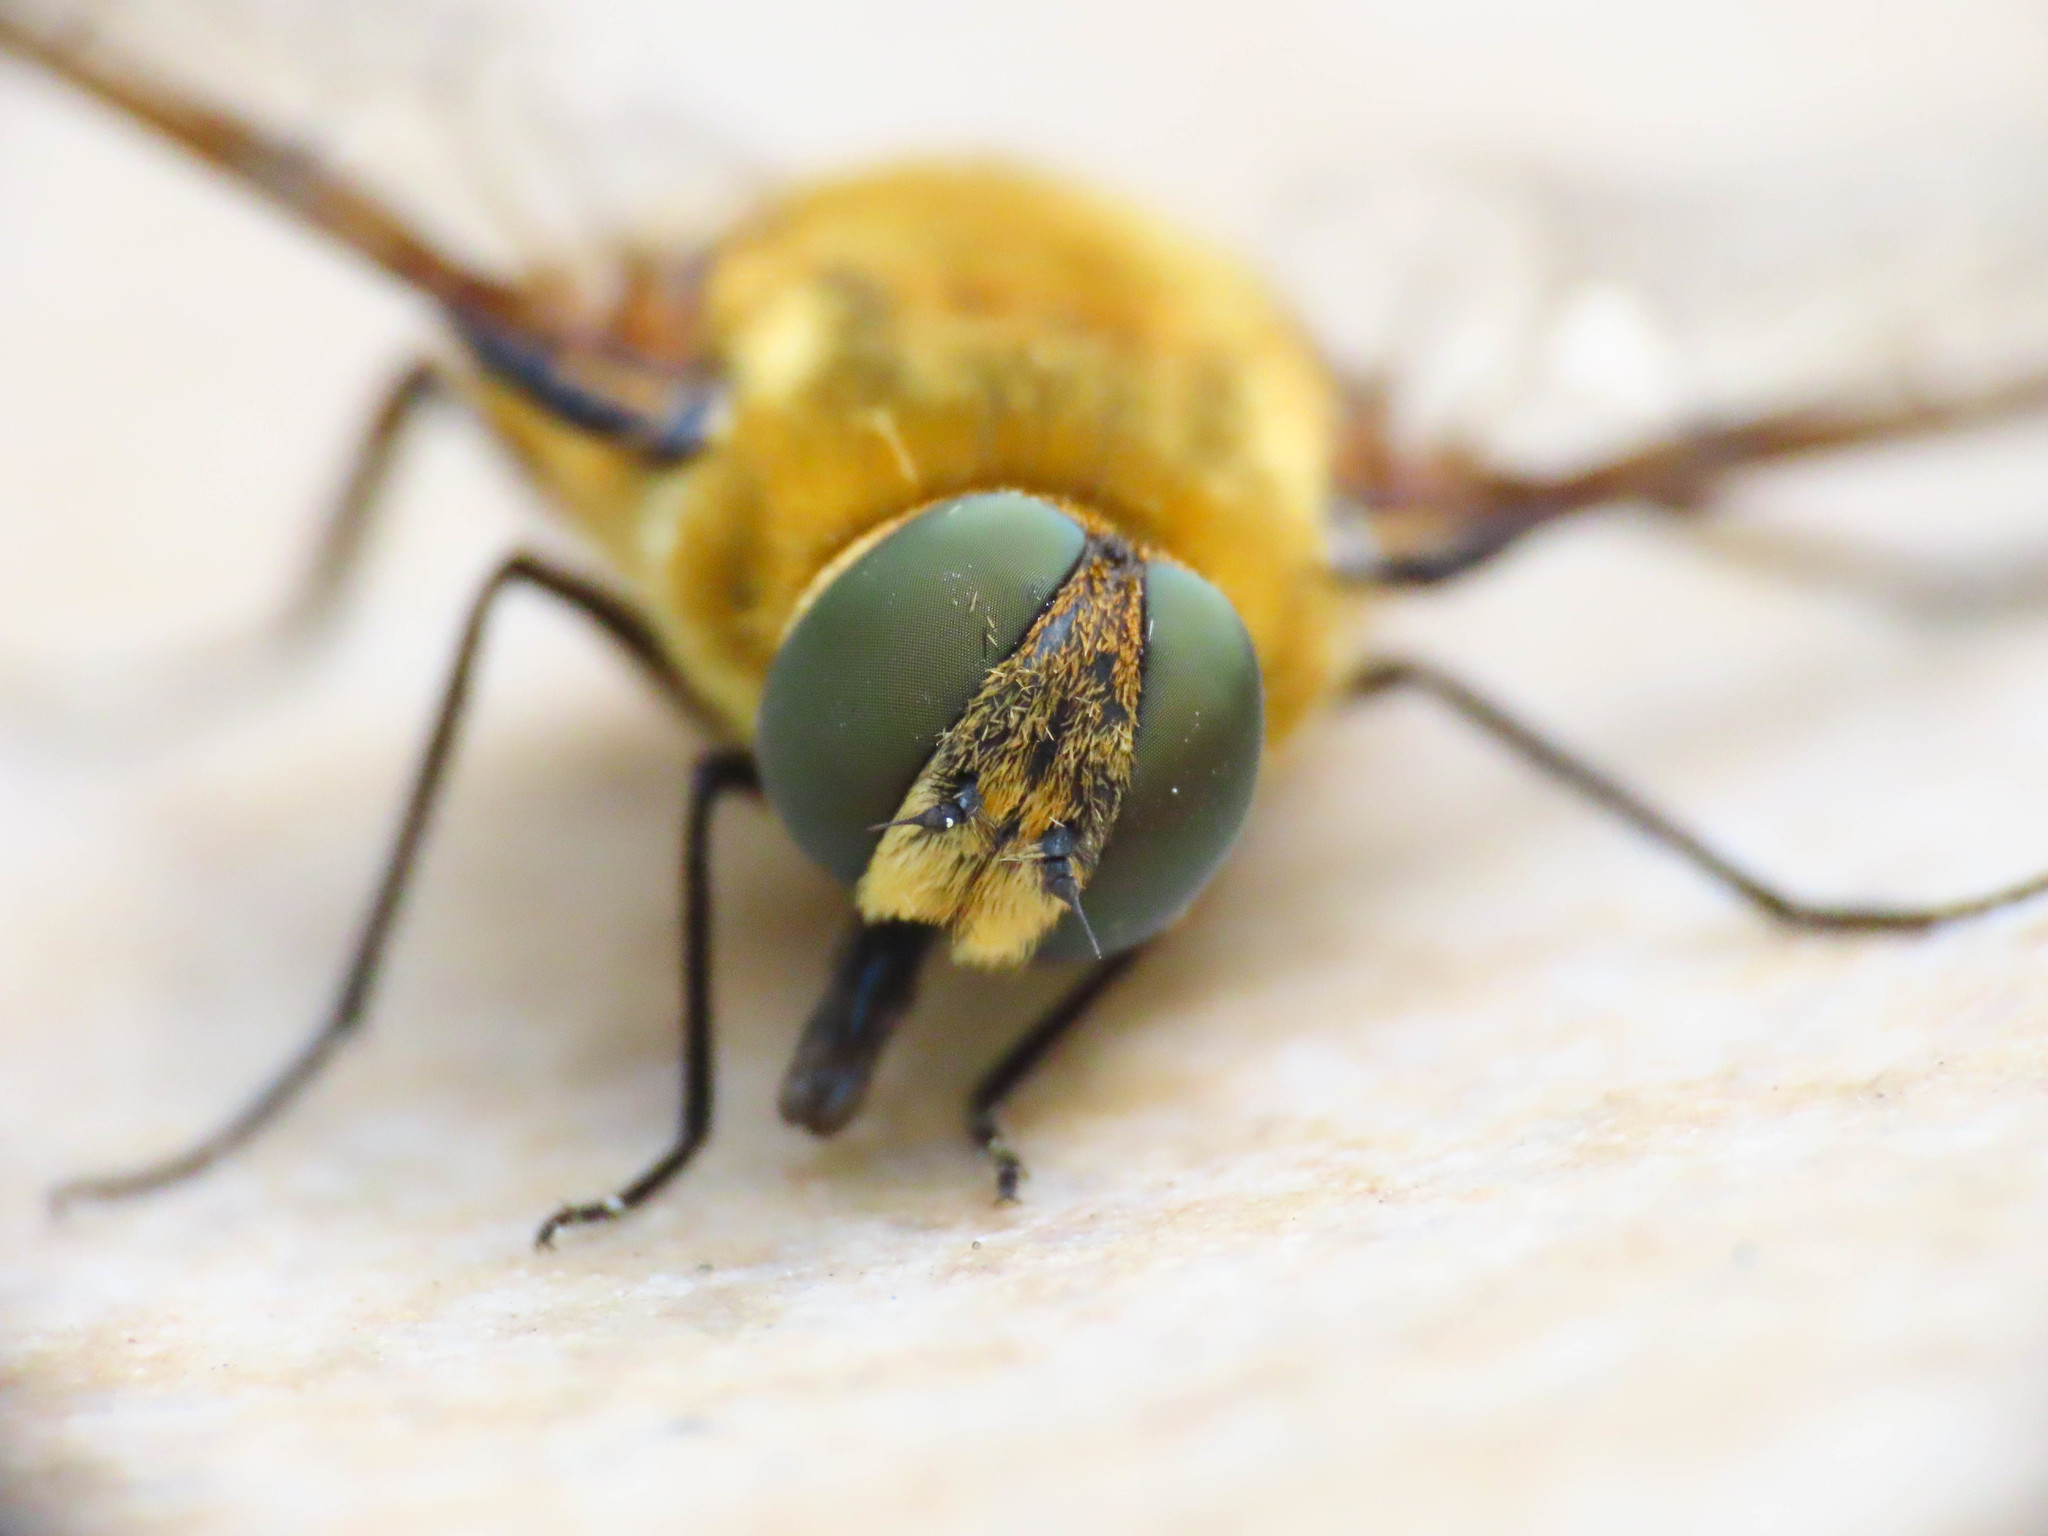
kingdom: Animalia
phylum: Arthropoda
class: Insecta
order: Diptera
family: Bombyliidae
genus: Villa
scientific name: Villa hottentotta
